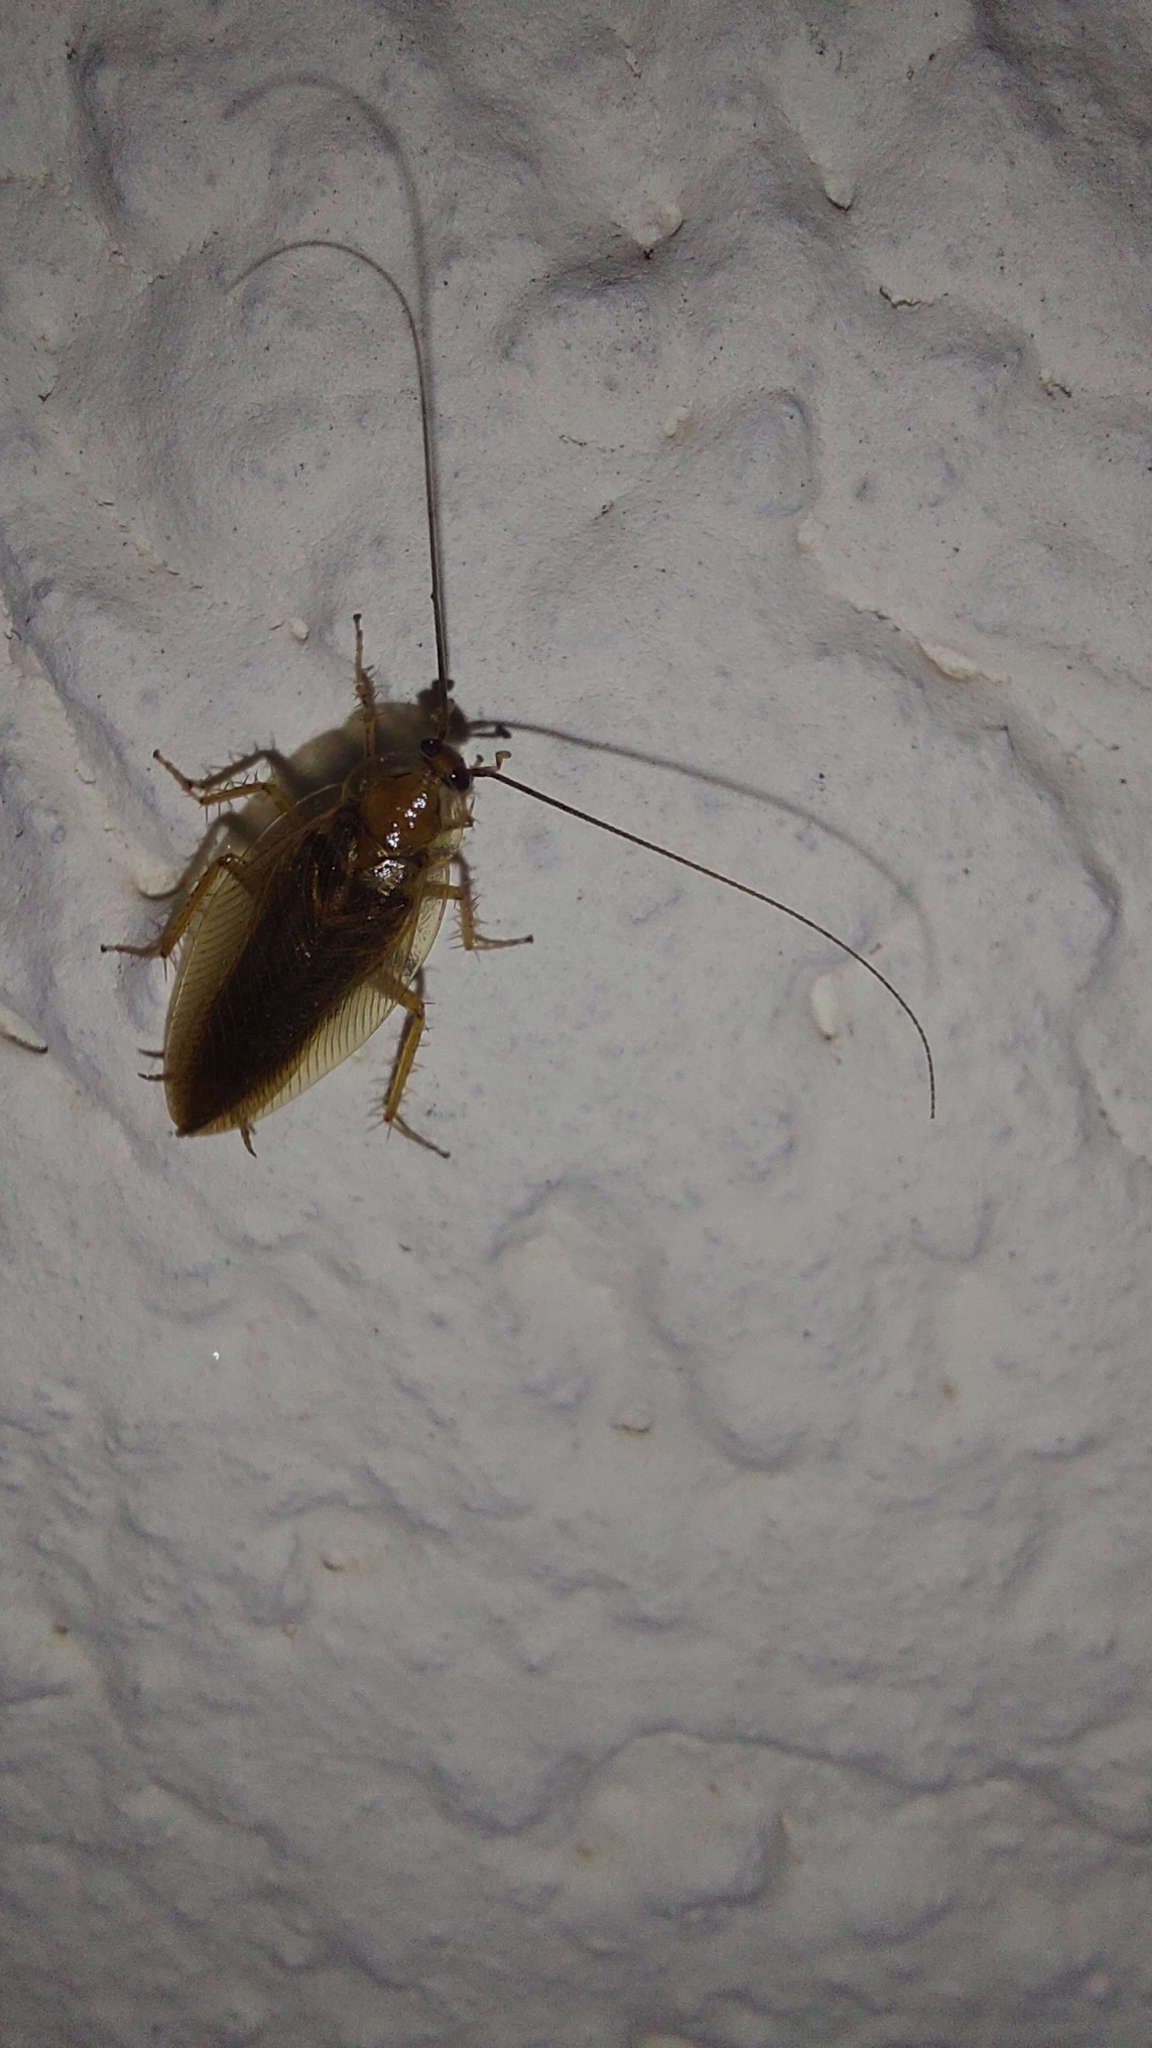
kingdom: Animalia
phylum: Arthropoda
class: Insecta
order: Blattodea
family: Ectobiidae
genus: Ectobius
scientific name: Ectobius vittiventris
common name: Garden cockroach
